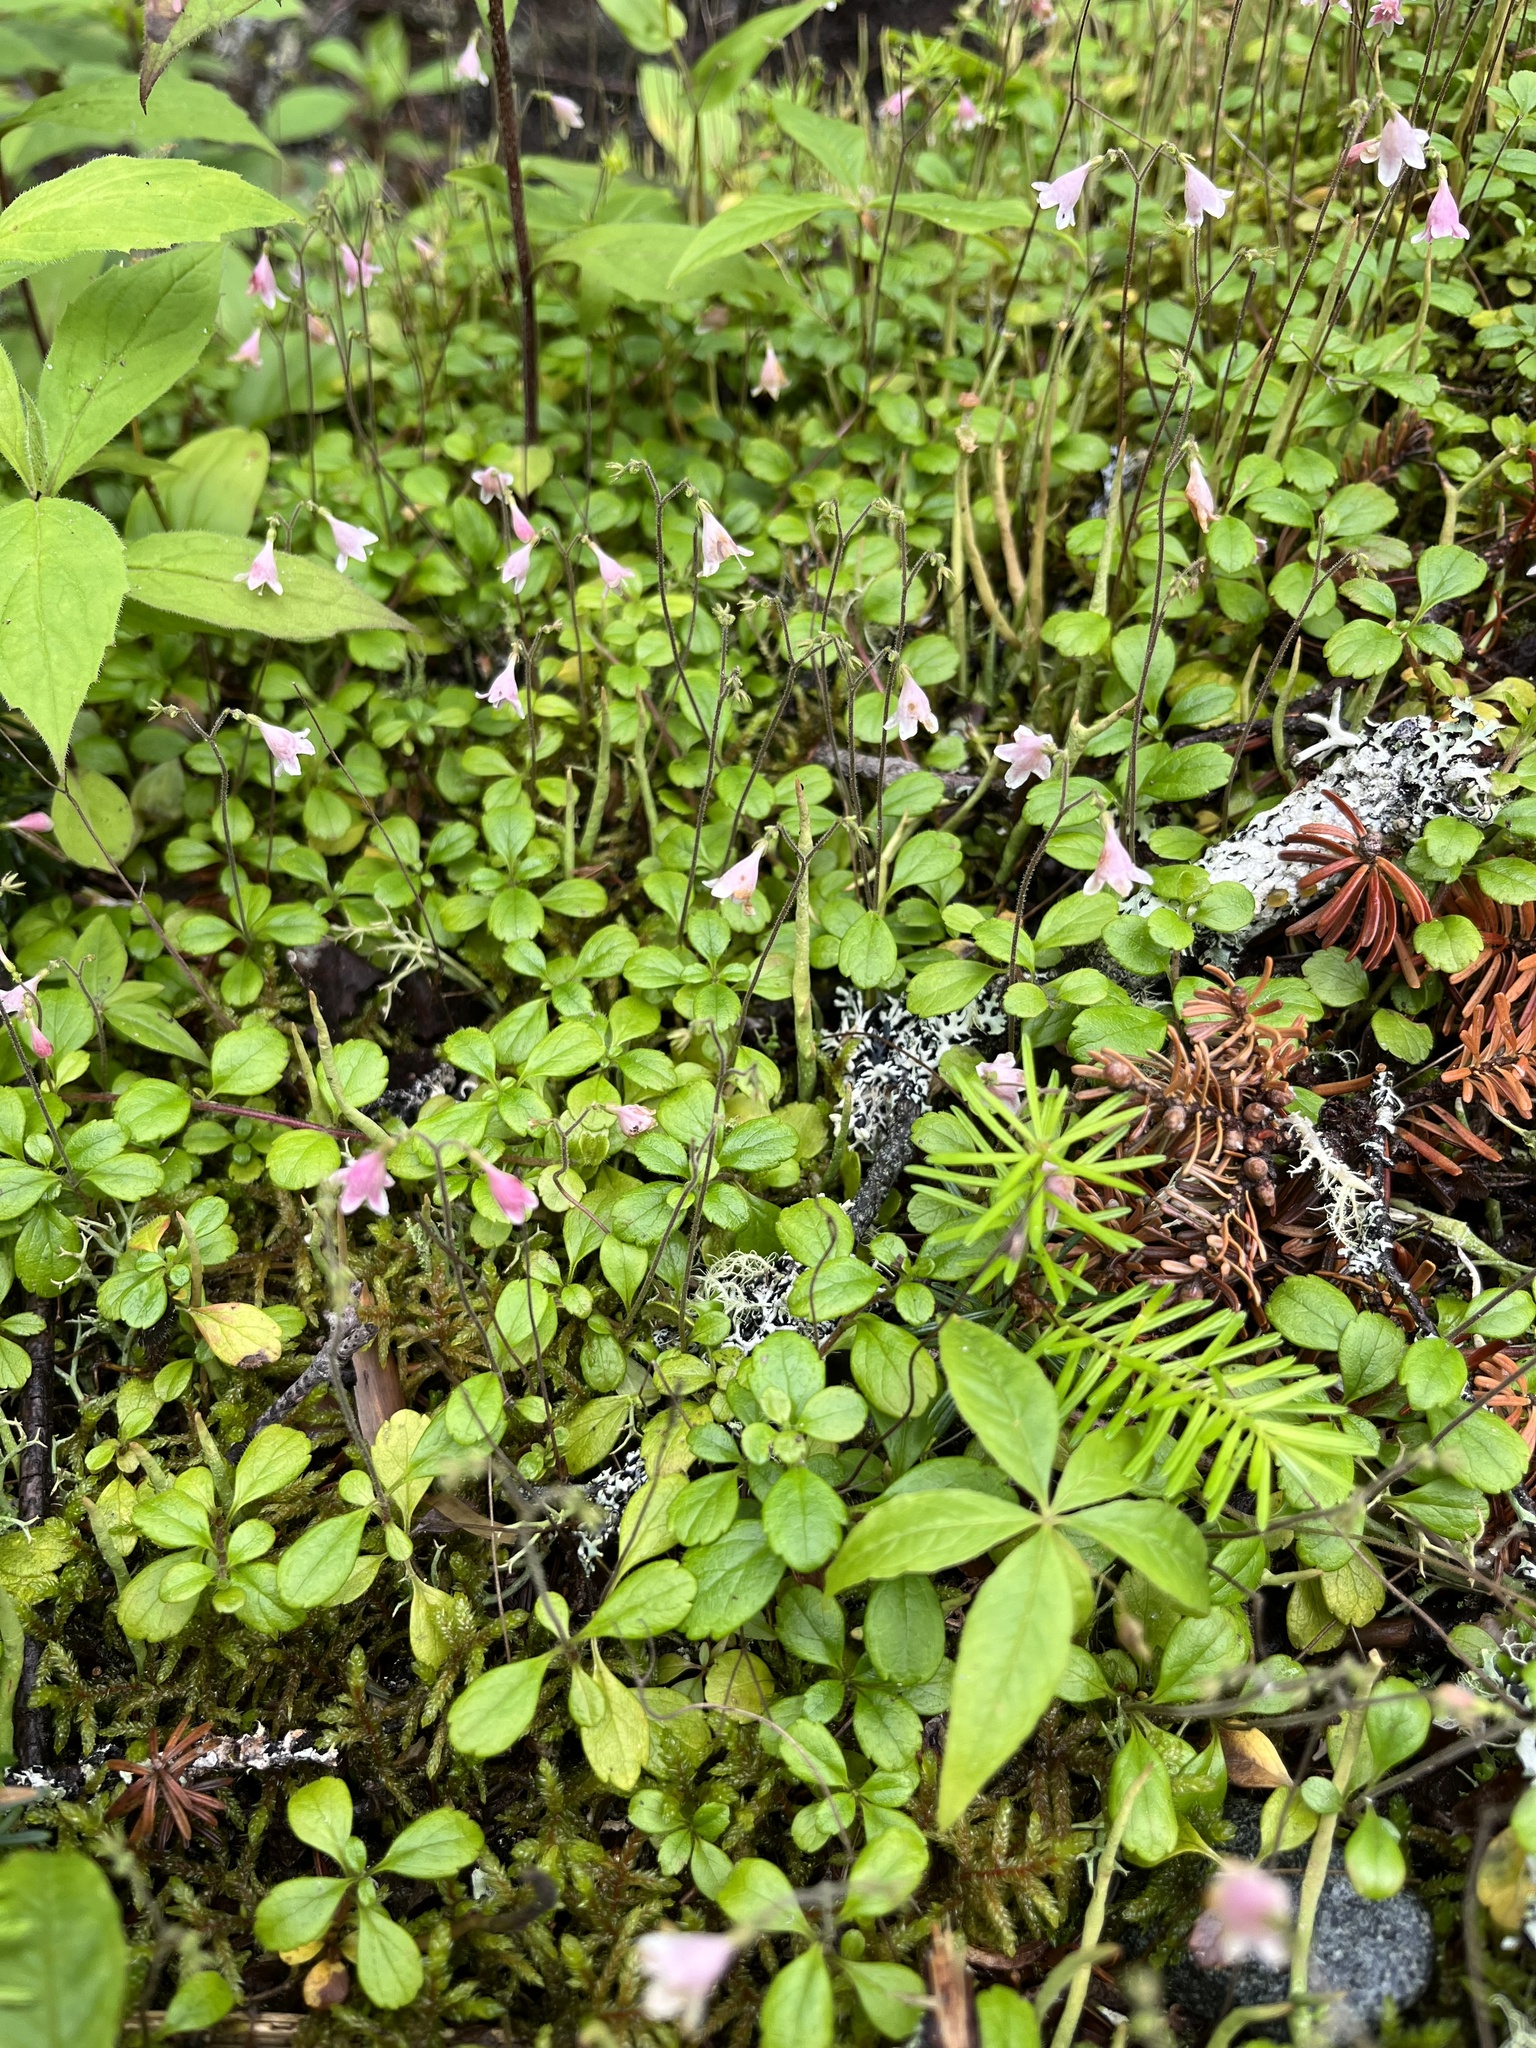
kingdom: Plantae
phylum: Tracheophyta
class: Magnoliopsida
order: Dipsacales
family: Caprifoliaceae
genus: Linnaea
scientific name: Linnaea borealis
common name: Twinflower
